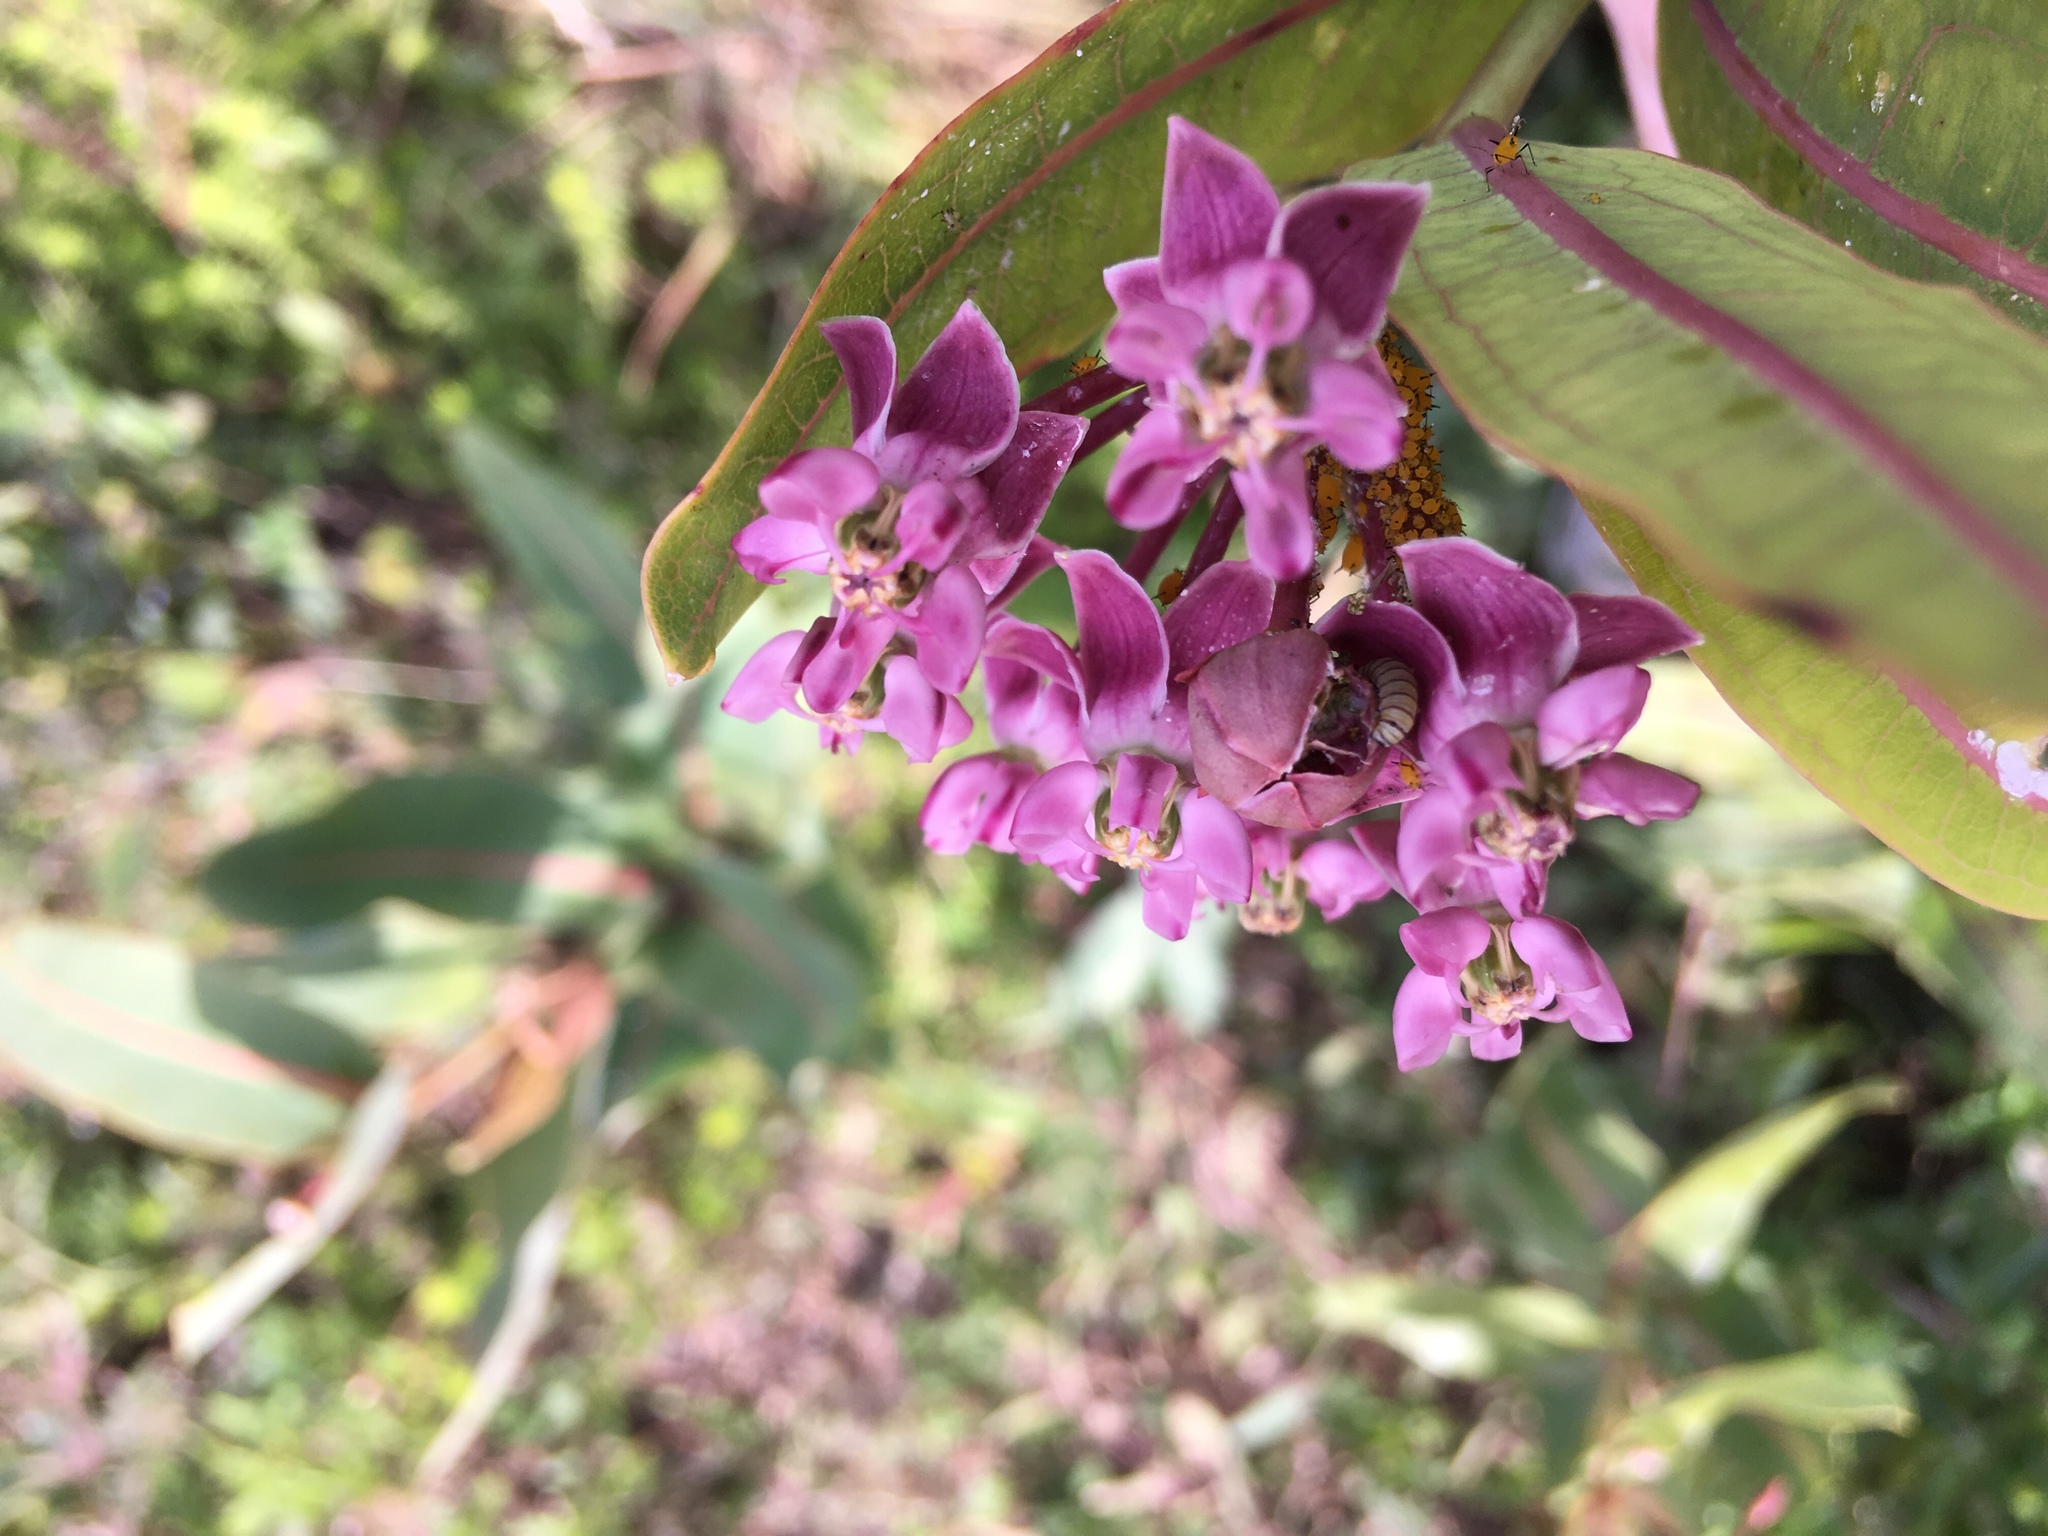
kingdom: Plantae
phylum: Tracheophyta
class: Magnoliopsida
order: Gentianales
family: Apocynaceae
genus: Asclepias
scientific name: Asclepias sullivantii
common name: Prairie milkweed
